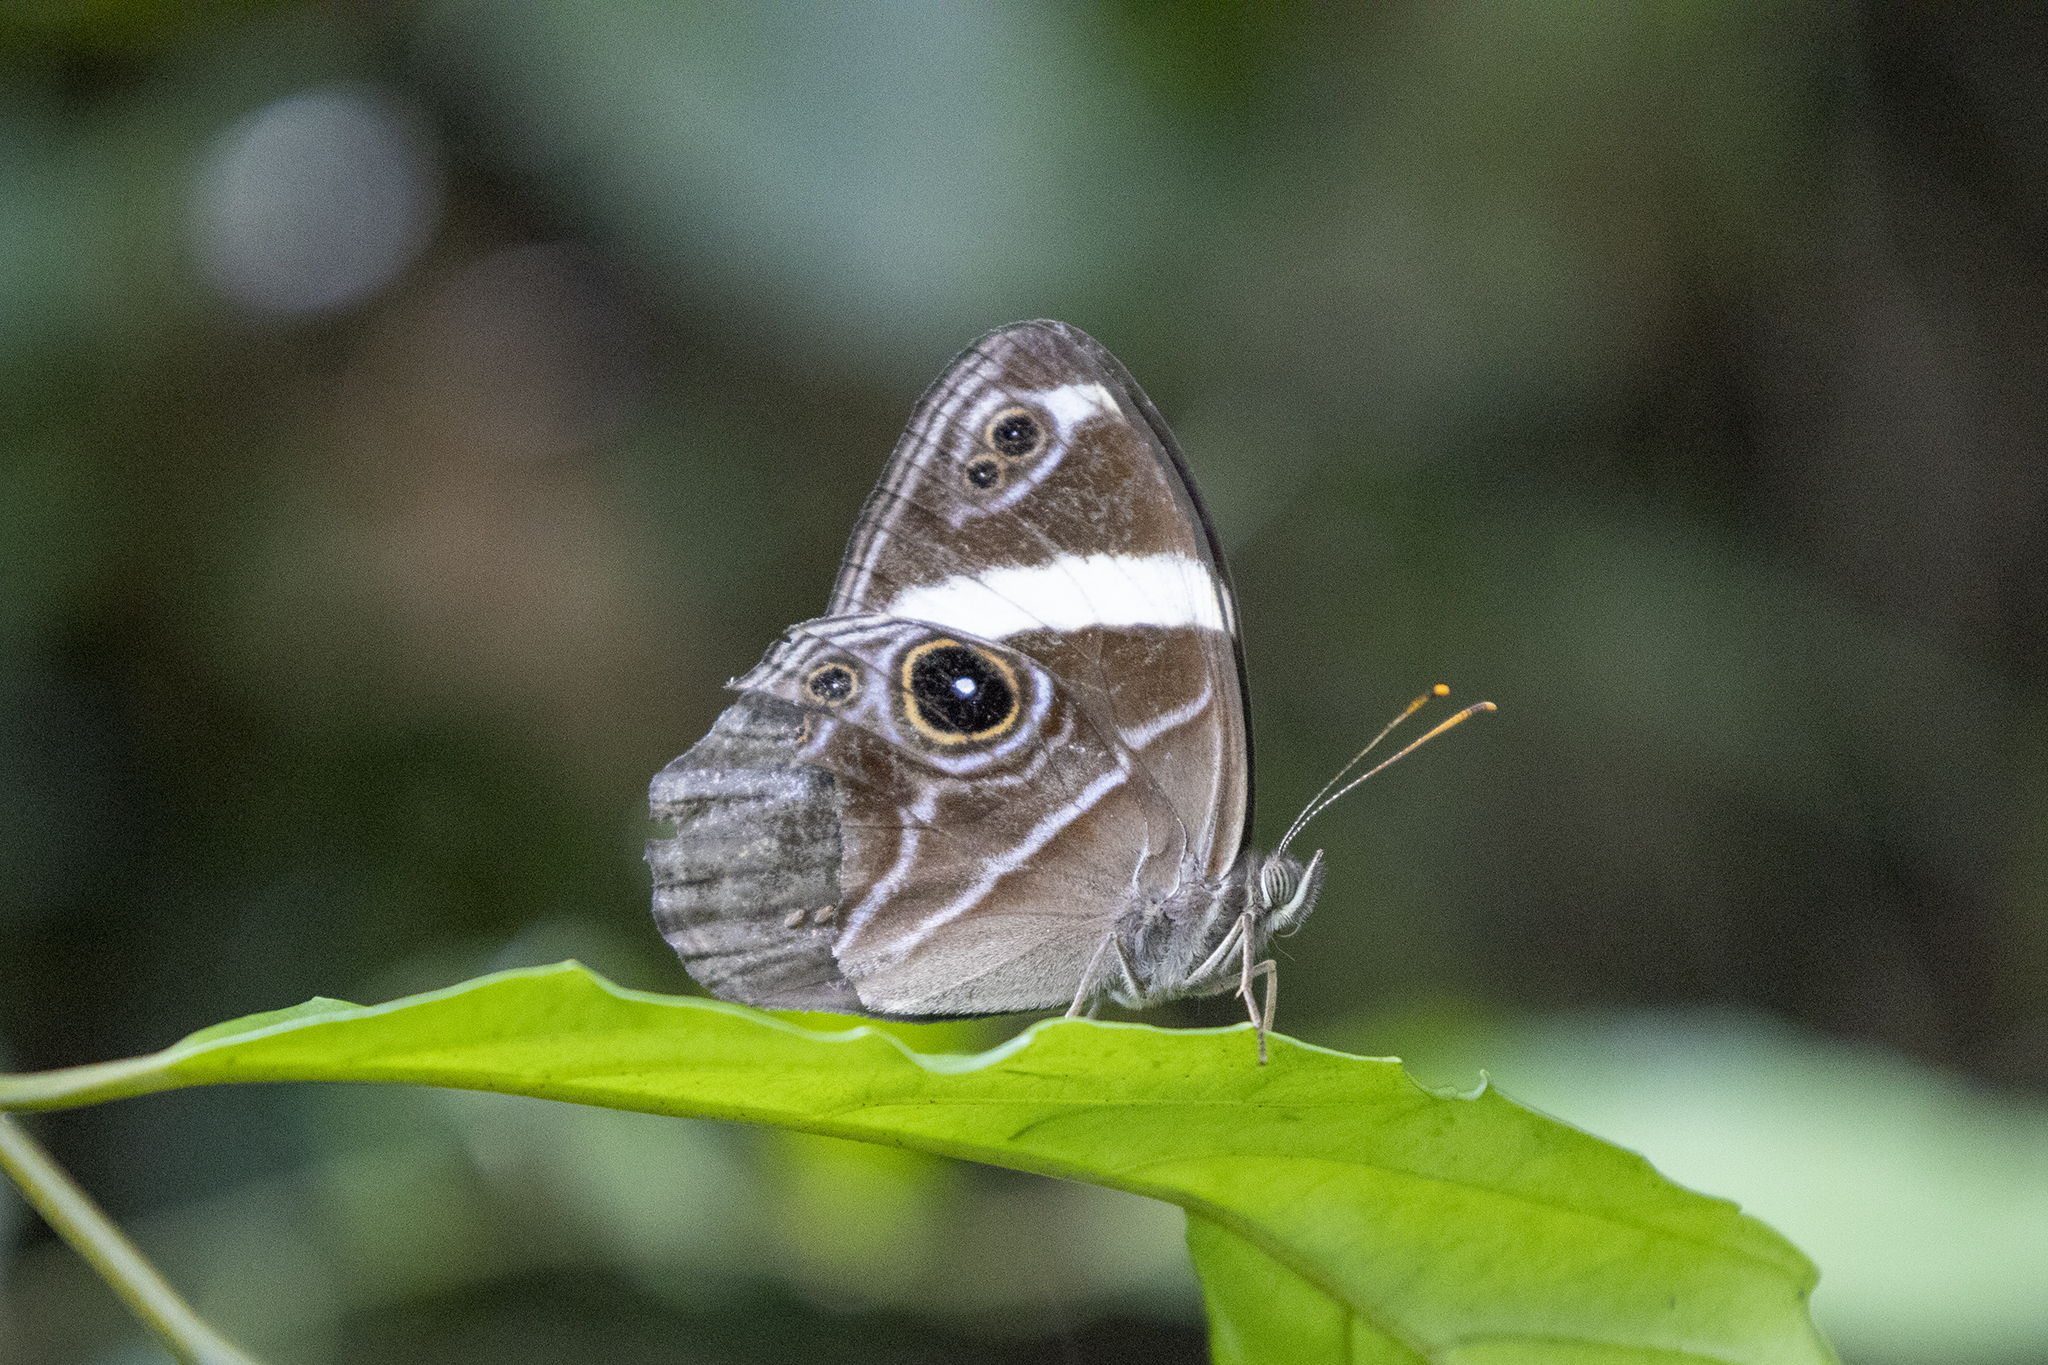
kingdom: Animalia
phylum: Arthropoda
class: Insecta
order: Lepidoptera
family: Nymphalidae
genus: Lethe
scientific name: Lethe confusa
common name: Banded treebrown
